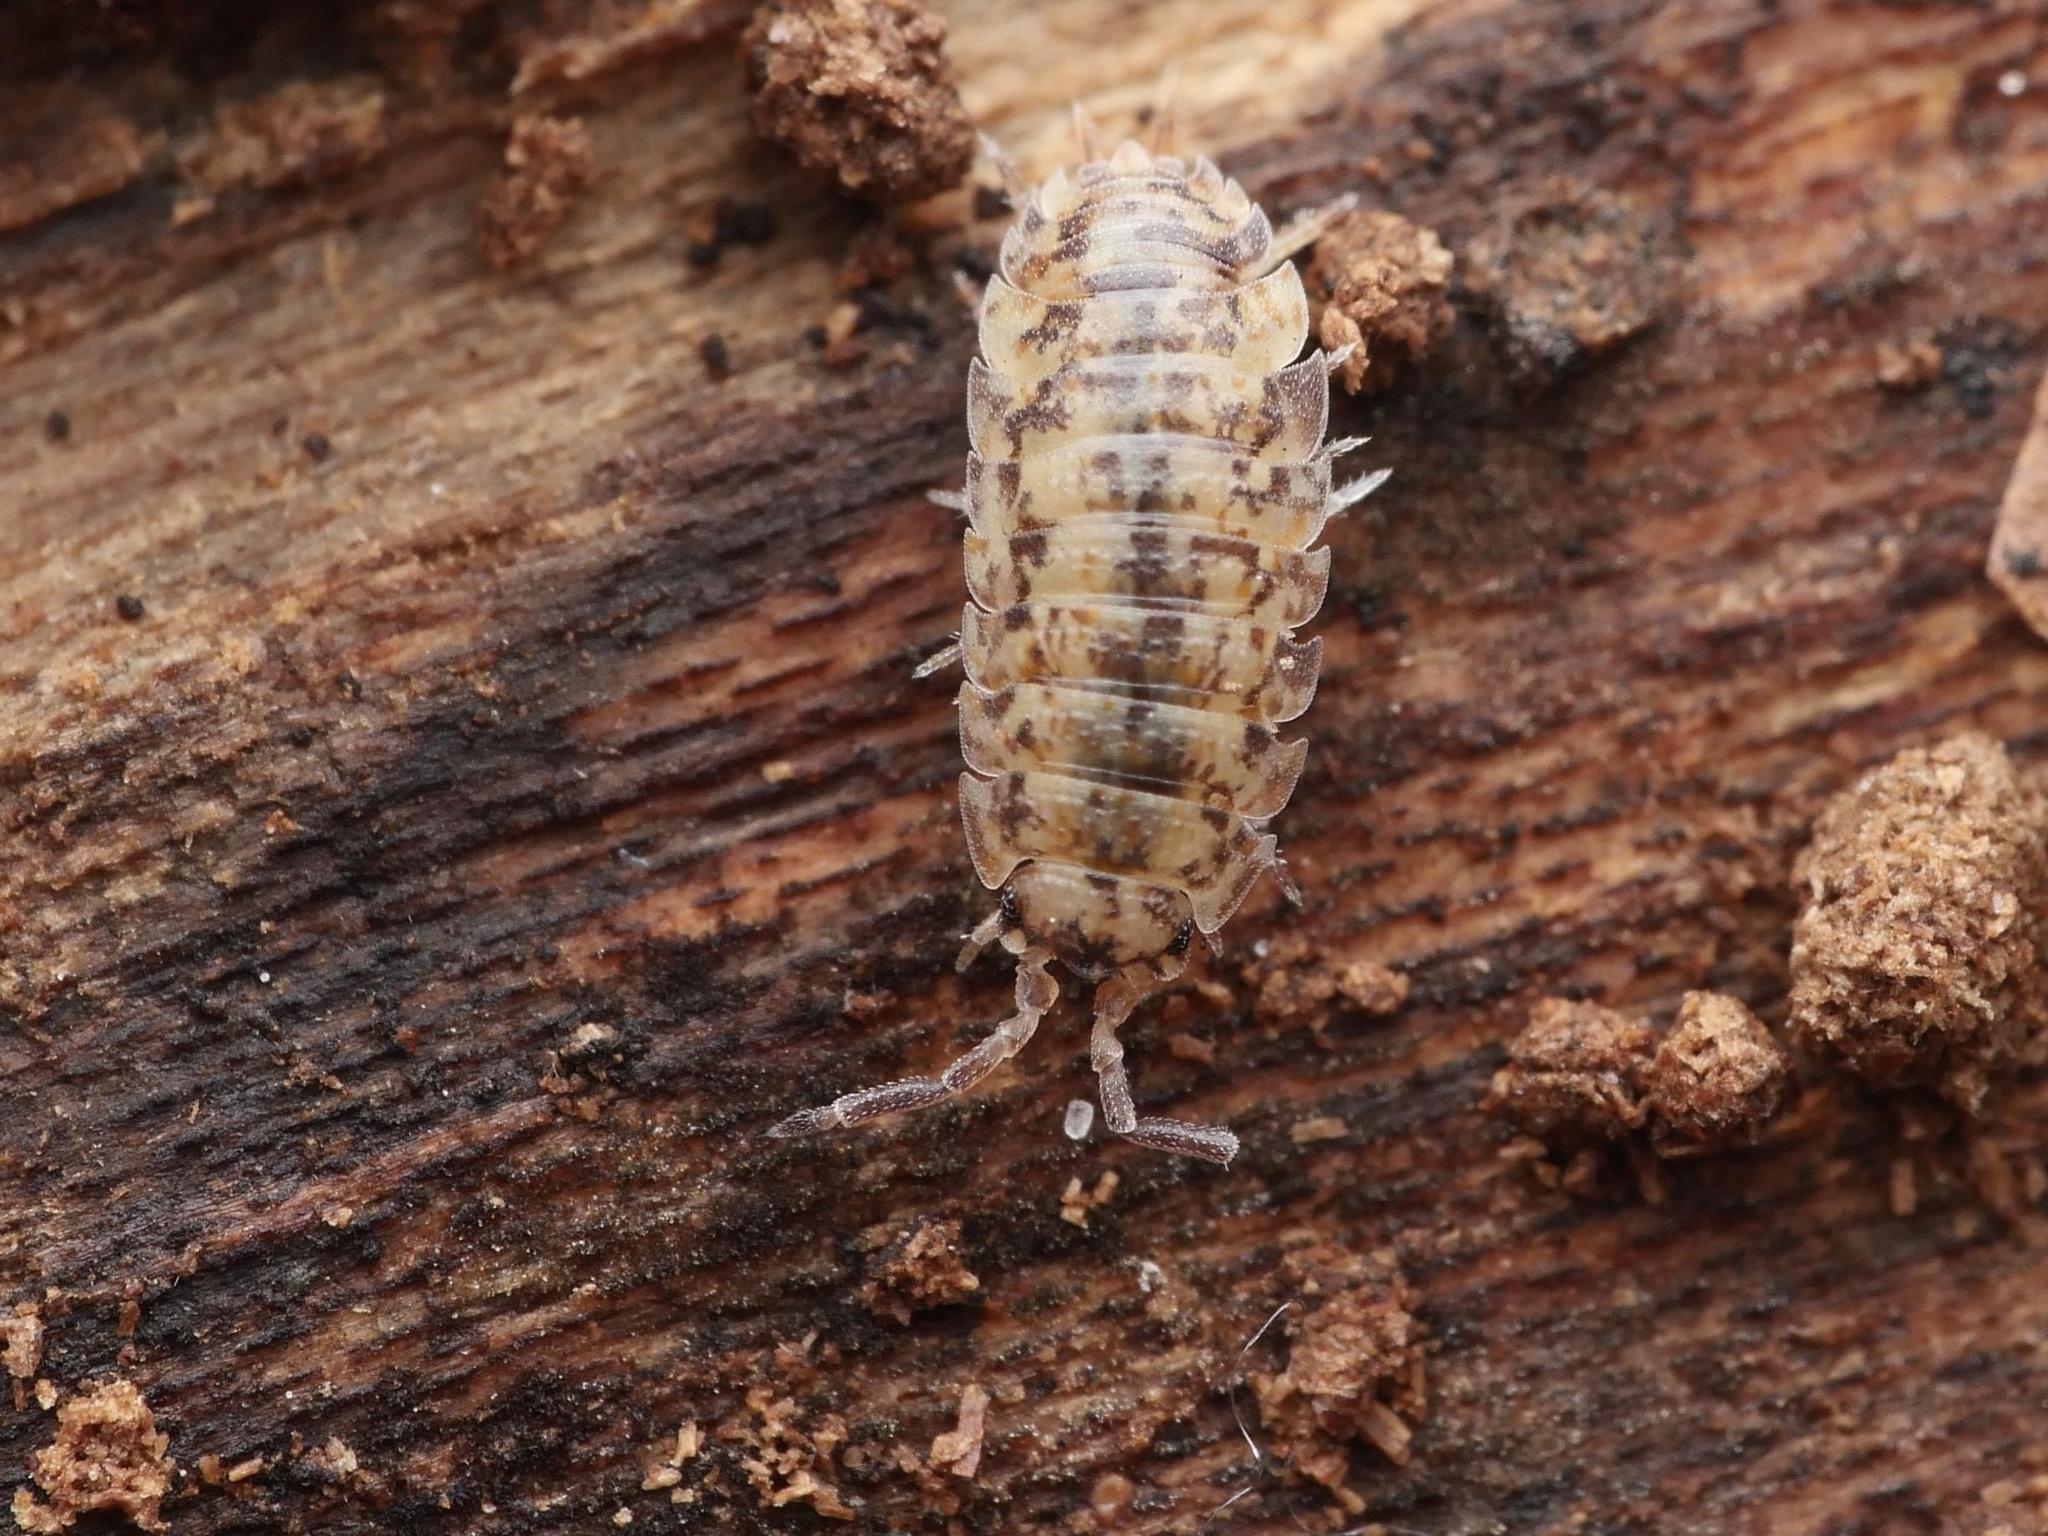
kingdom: Animalia
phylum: Arthropoda
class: Malacostraca
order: Isopoda
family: Porcellionidae
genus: Porcellio
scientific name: Porcellio scaber
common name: Common rough woodlouse
